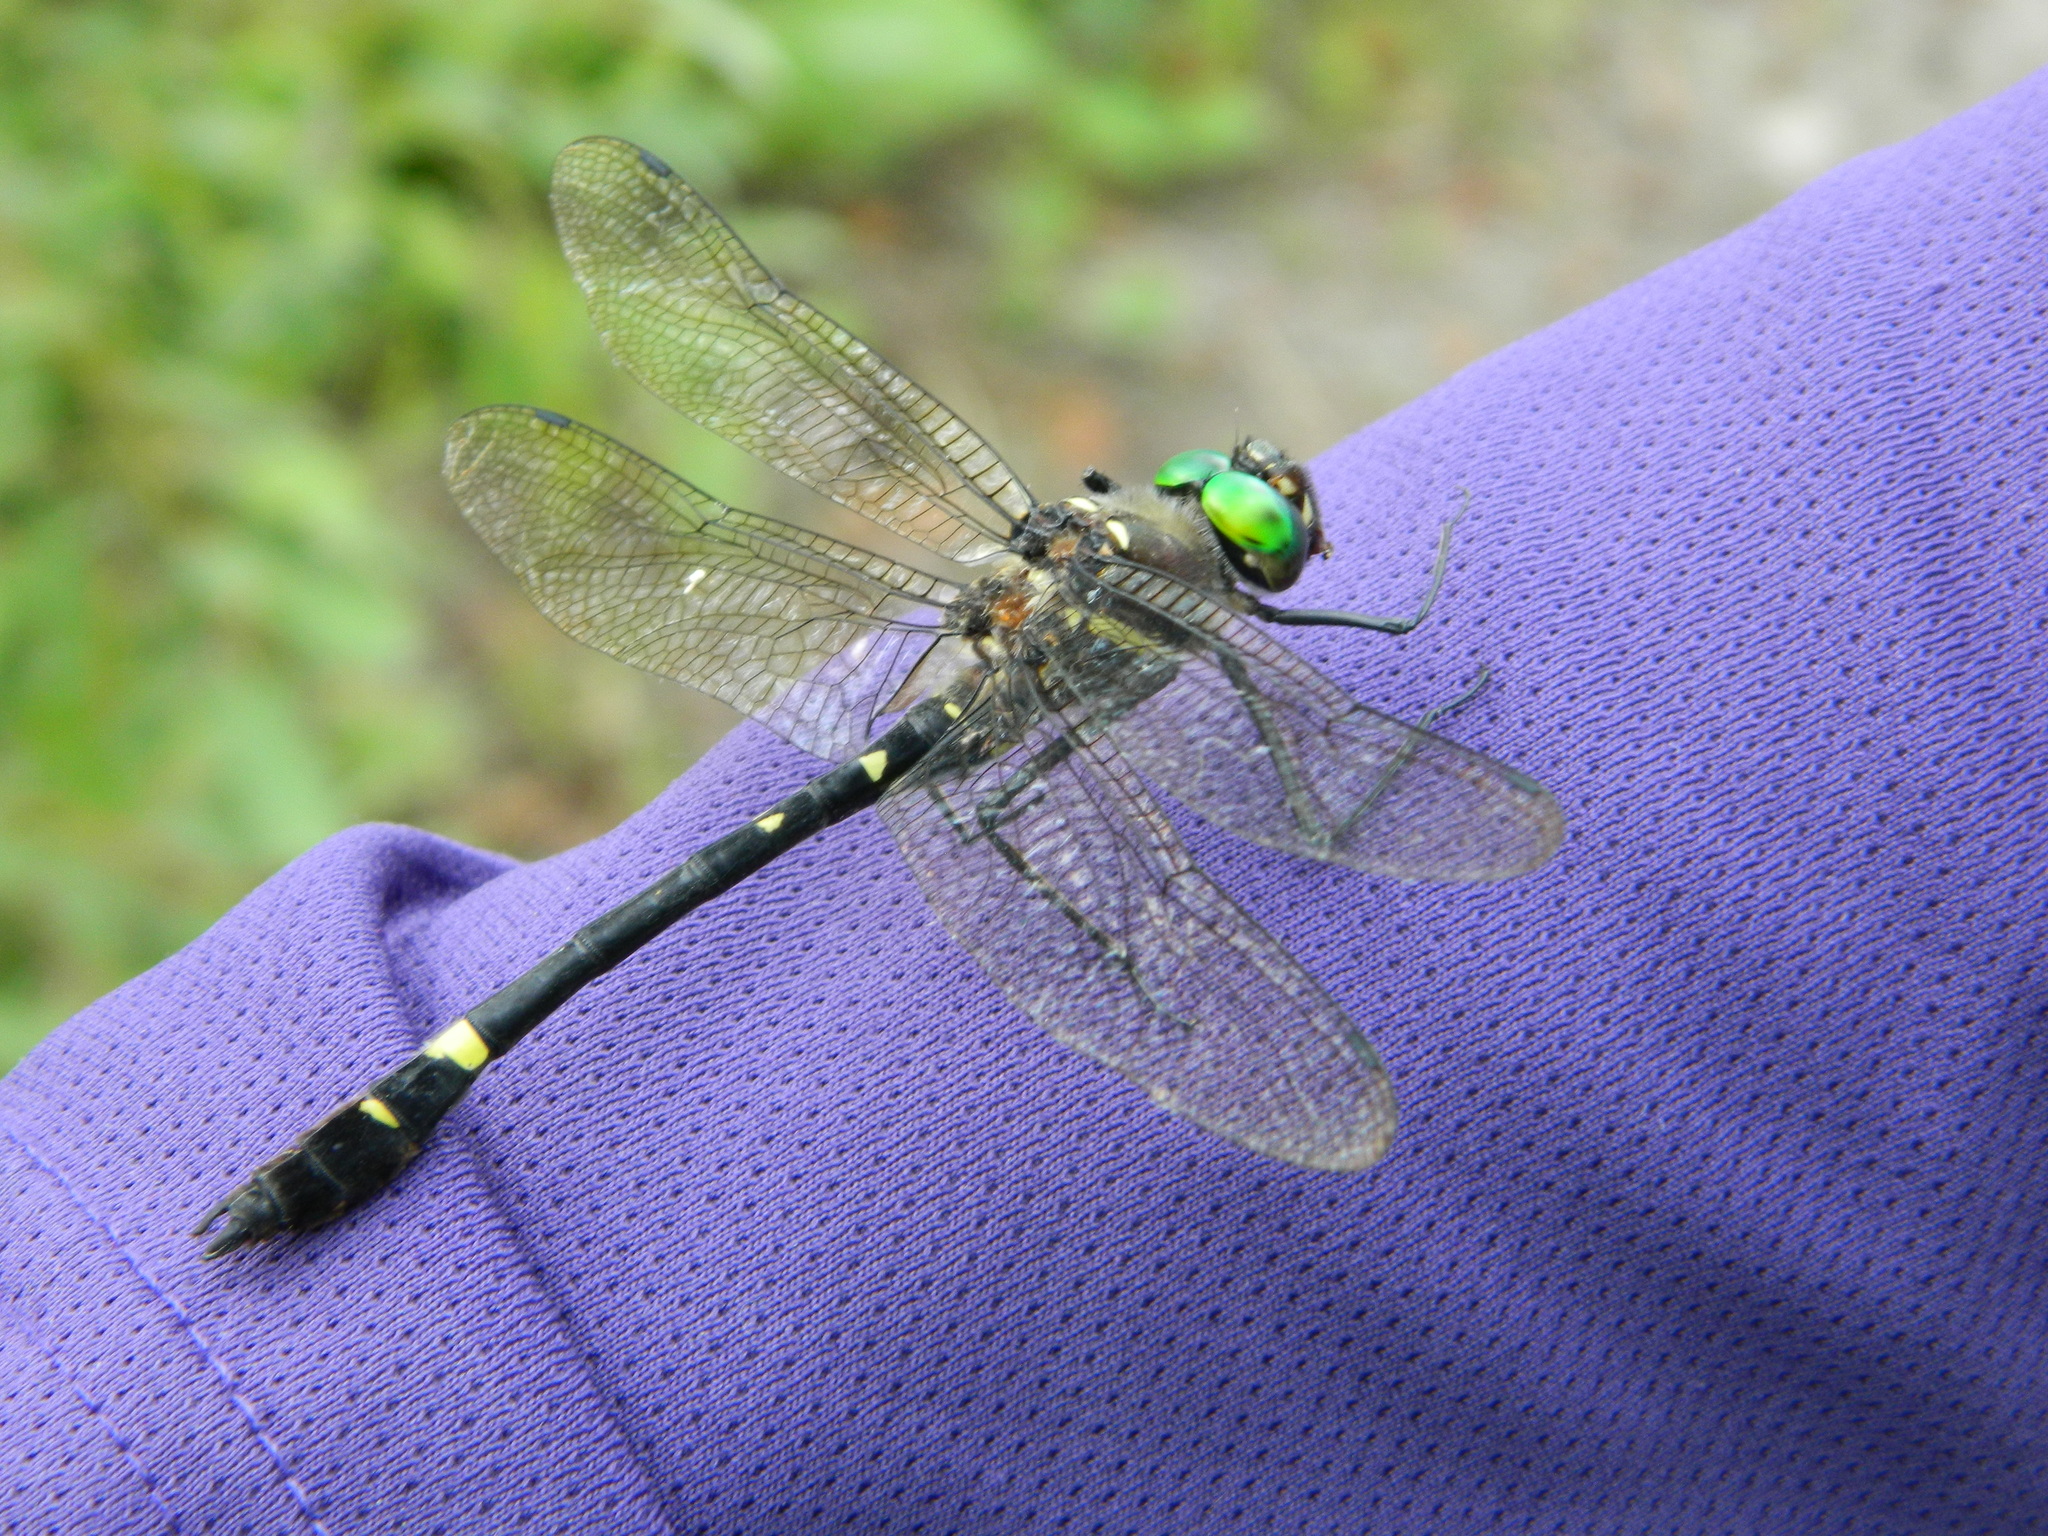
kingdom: Animalia
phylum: Arthropoda
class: Insecta
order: Odonata
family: Macromiidae
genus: Macromia
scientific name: Macromia illinoiensis
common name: Swift river cruiser
